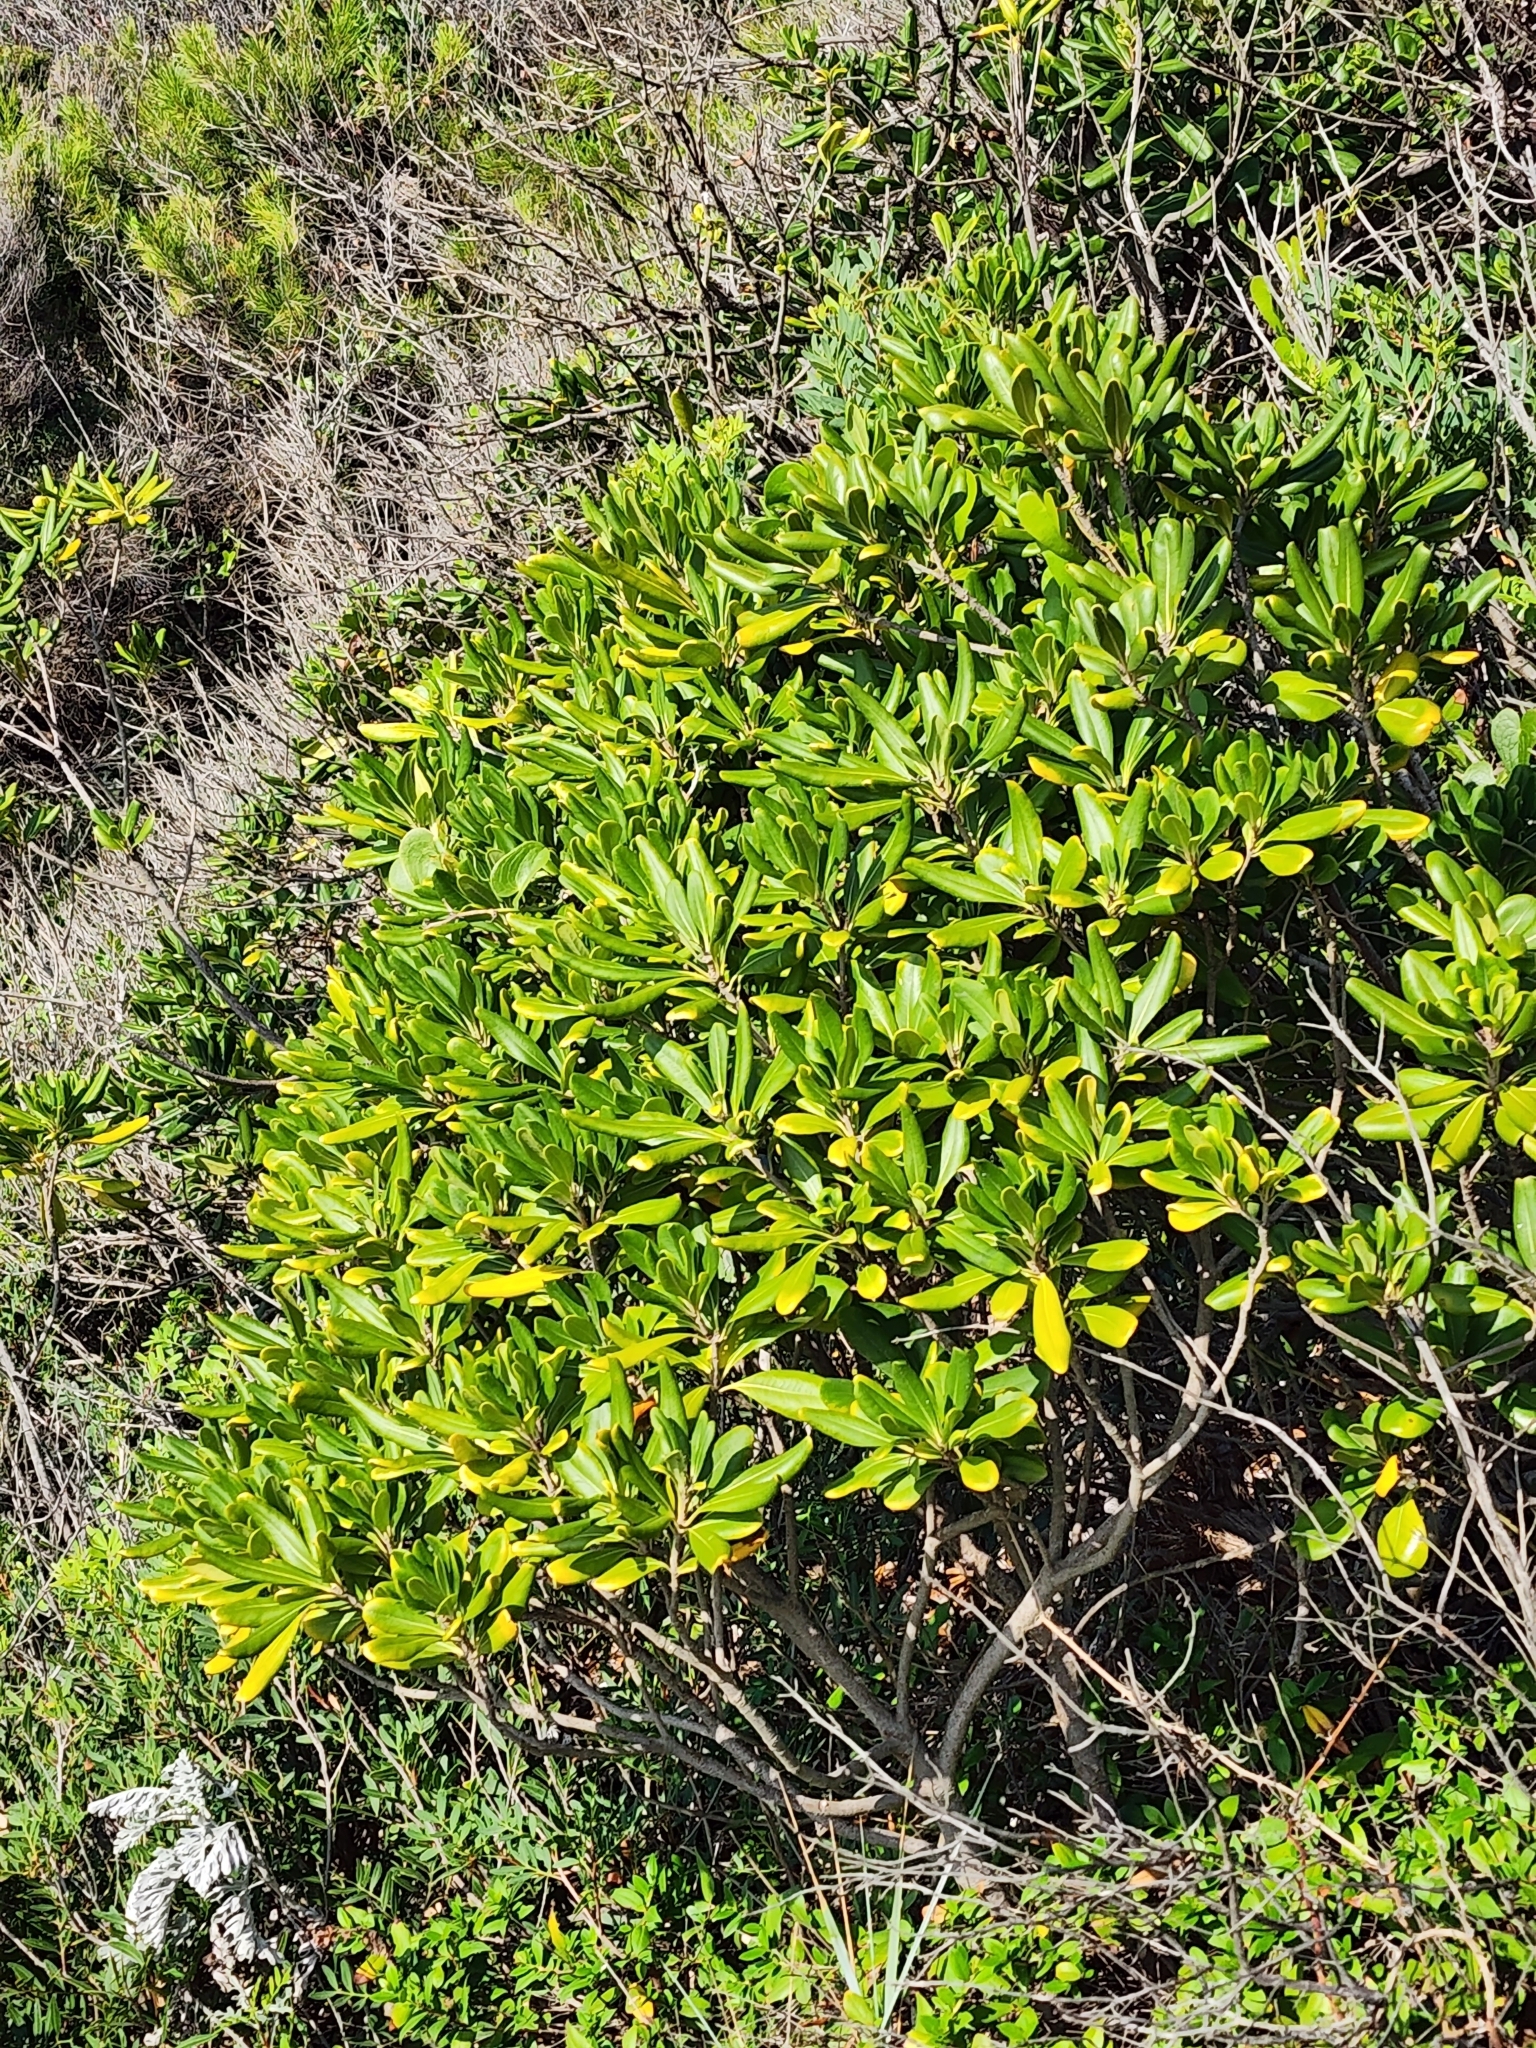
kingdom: Plantae
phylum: Tracheophyta
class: Magnoliopsida
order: Apiales
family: Pittosporaceae
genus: Pittosporum
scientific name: Pittosporum tobira
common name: Japanese cheesewood
